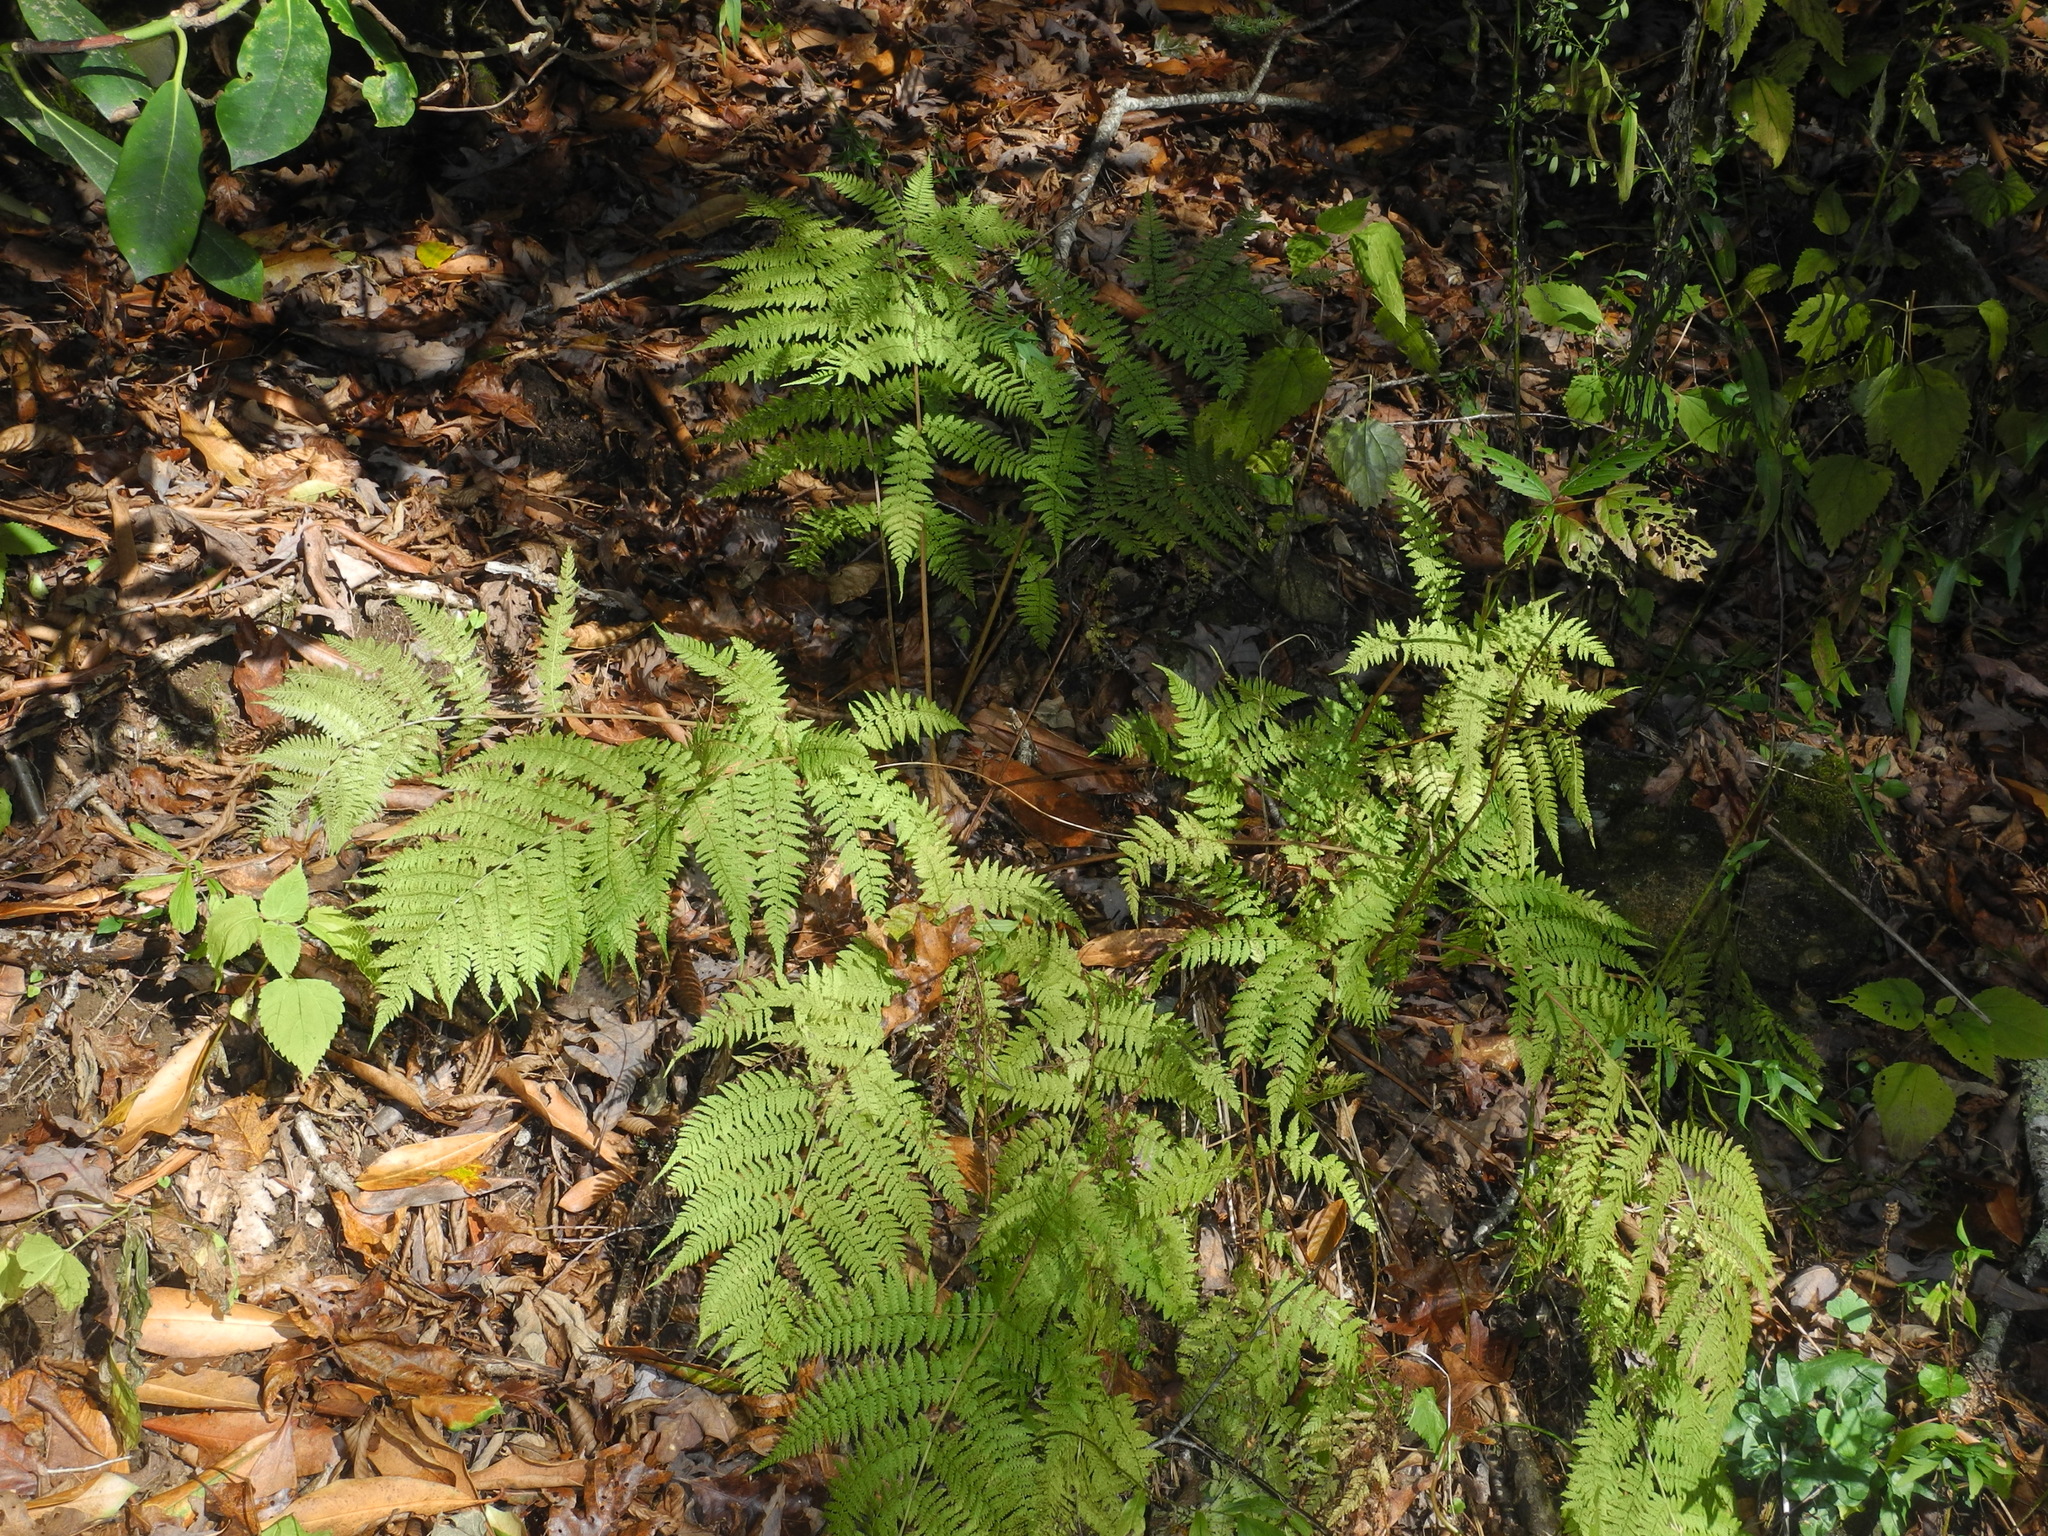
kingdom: Plantae
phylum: Tracheophyta
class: Polypodiopsida
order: Polypodiales
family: Athyriaceae
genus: Athyrium
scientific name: Athyrium asplenioides
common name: Southern lady fern
